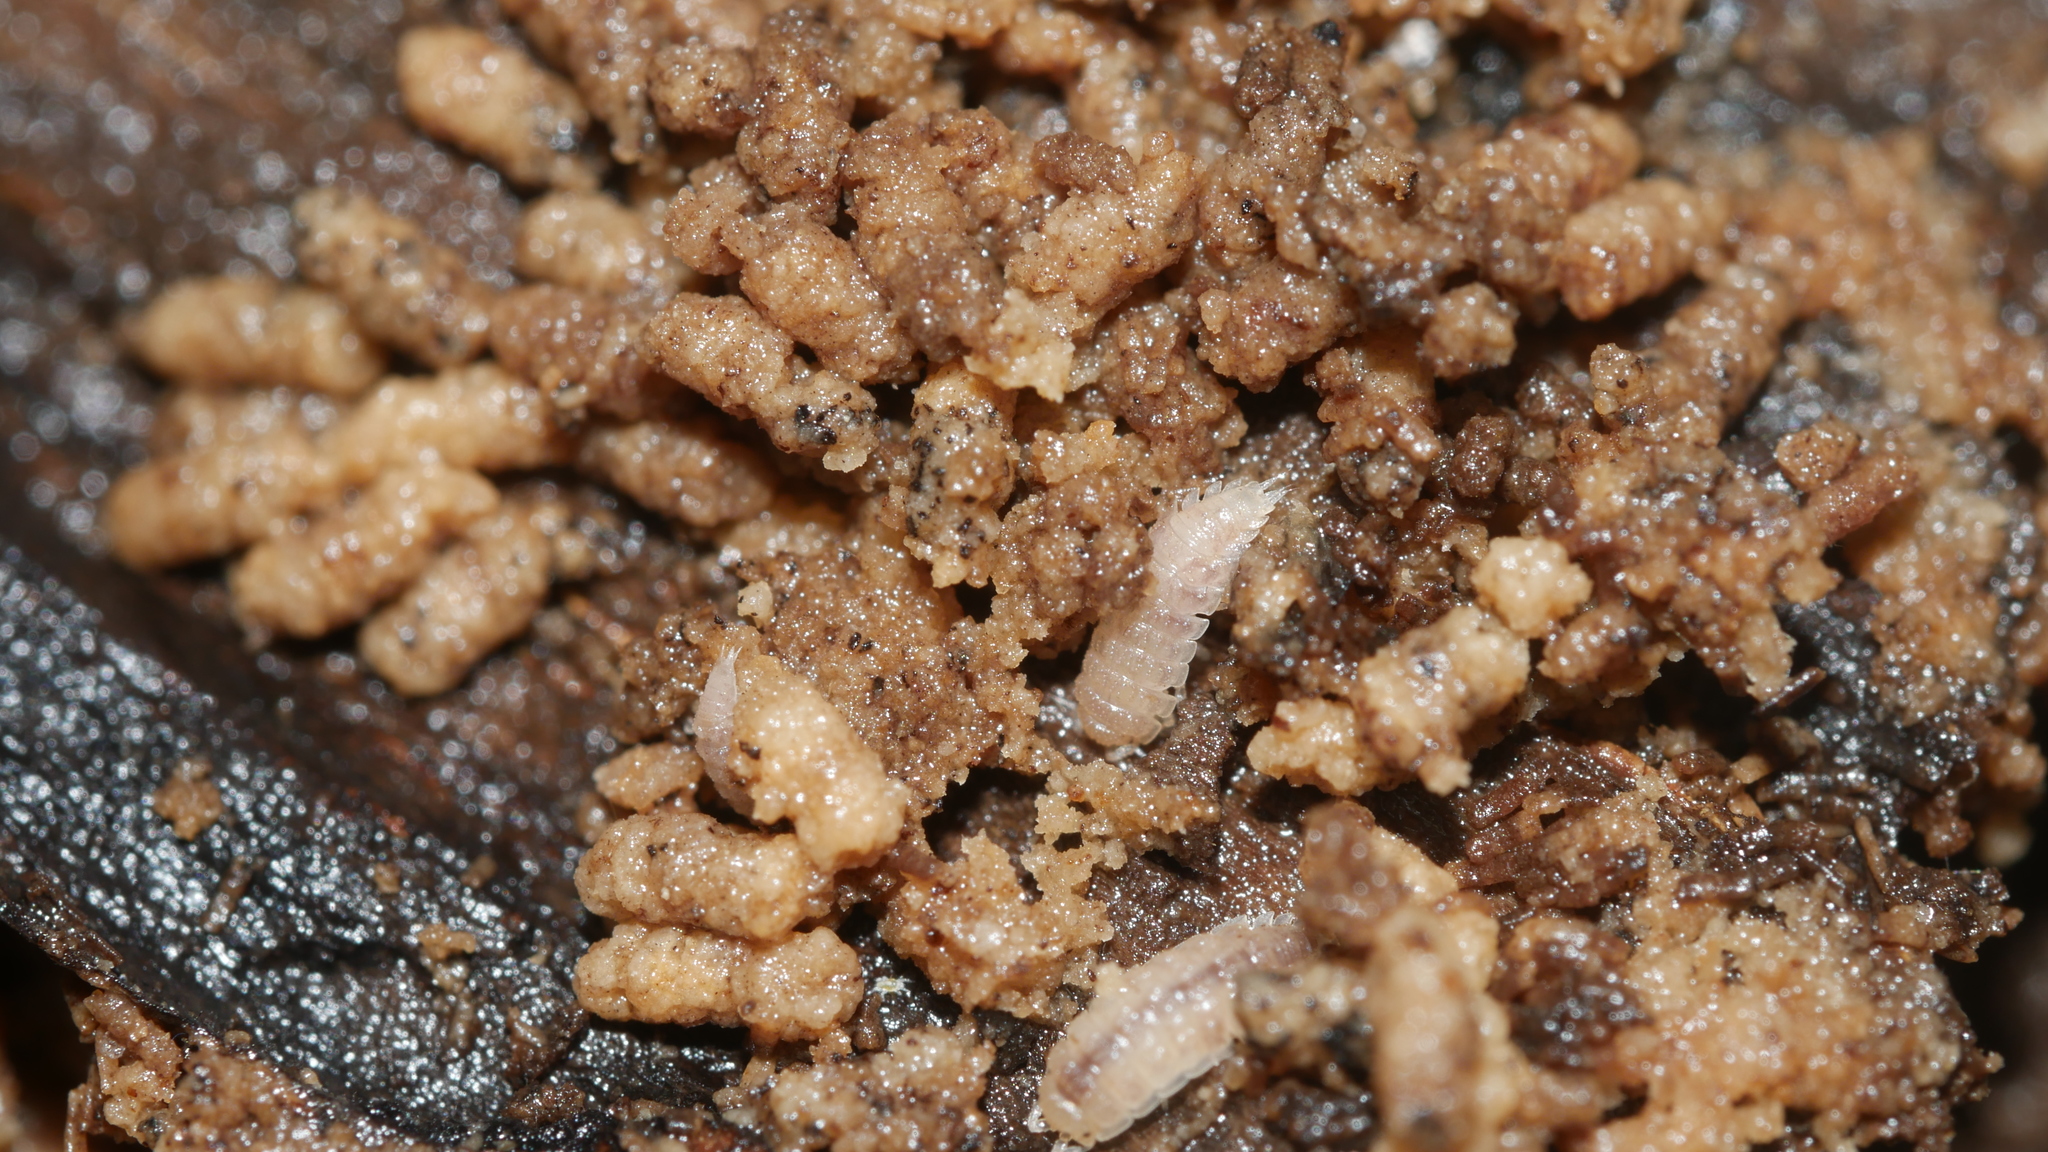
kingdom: Animalia
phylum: Arthropoda
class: Malacostraca
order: Isopoda
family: Trichoniscidae
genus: Haplophthalmus
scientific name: Haplophthalmus danicus
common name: Pillbug
